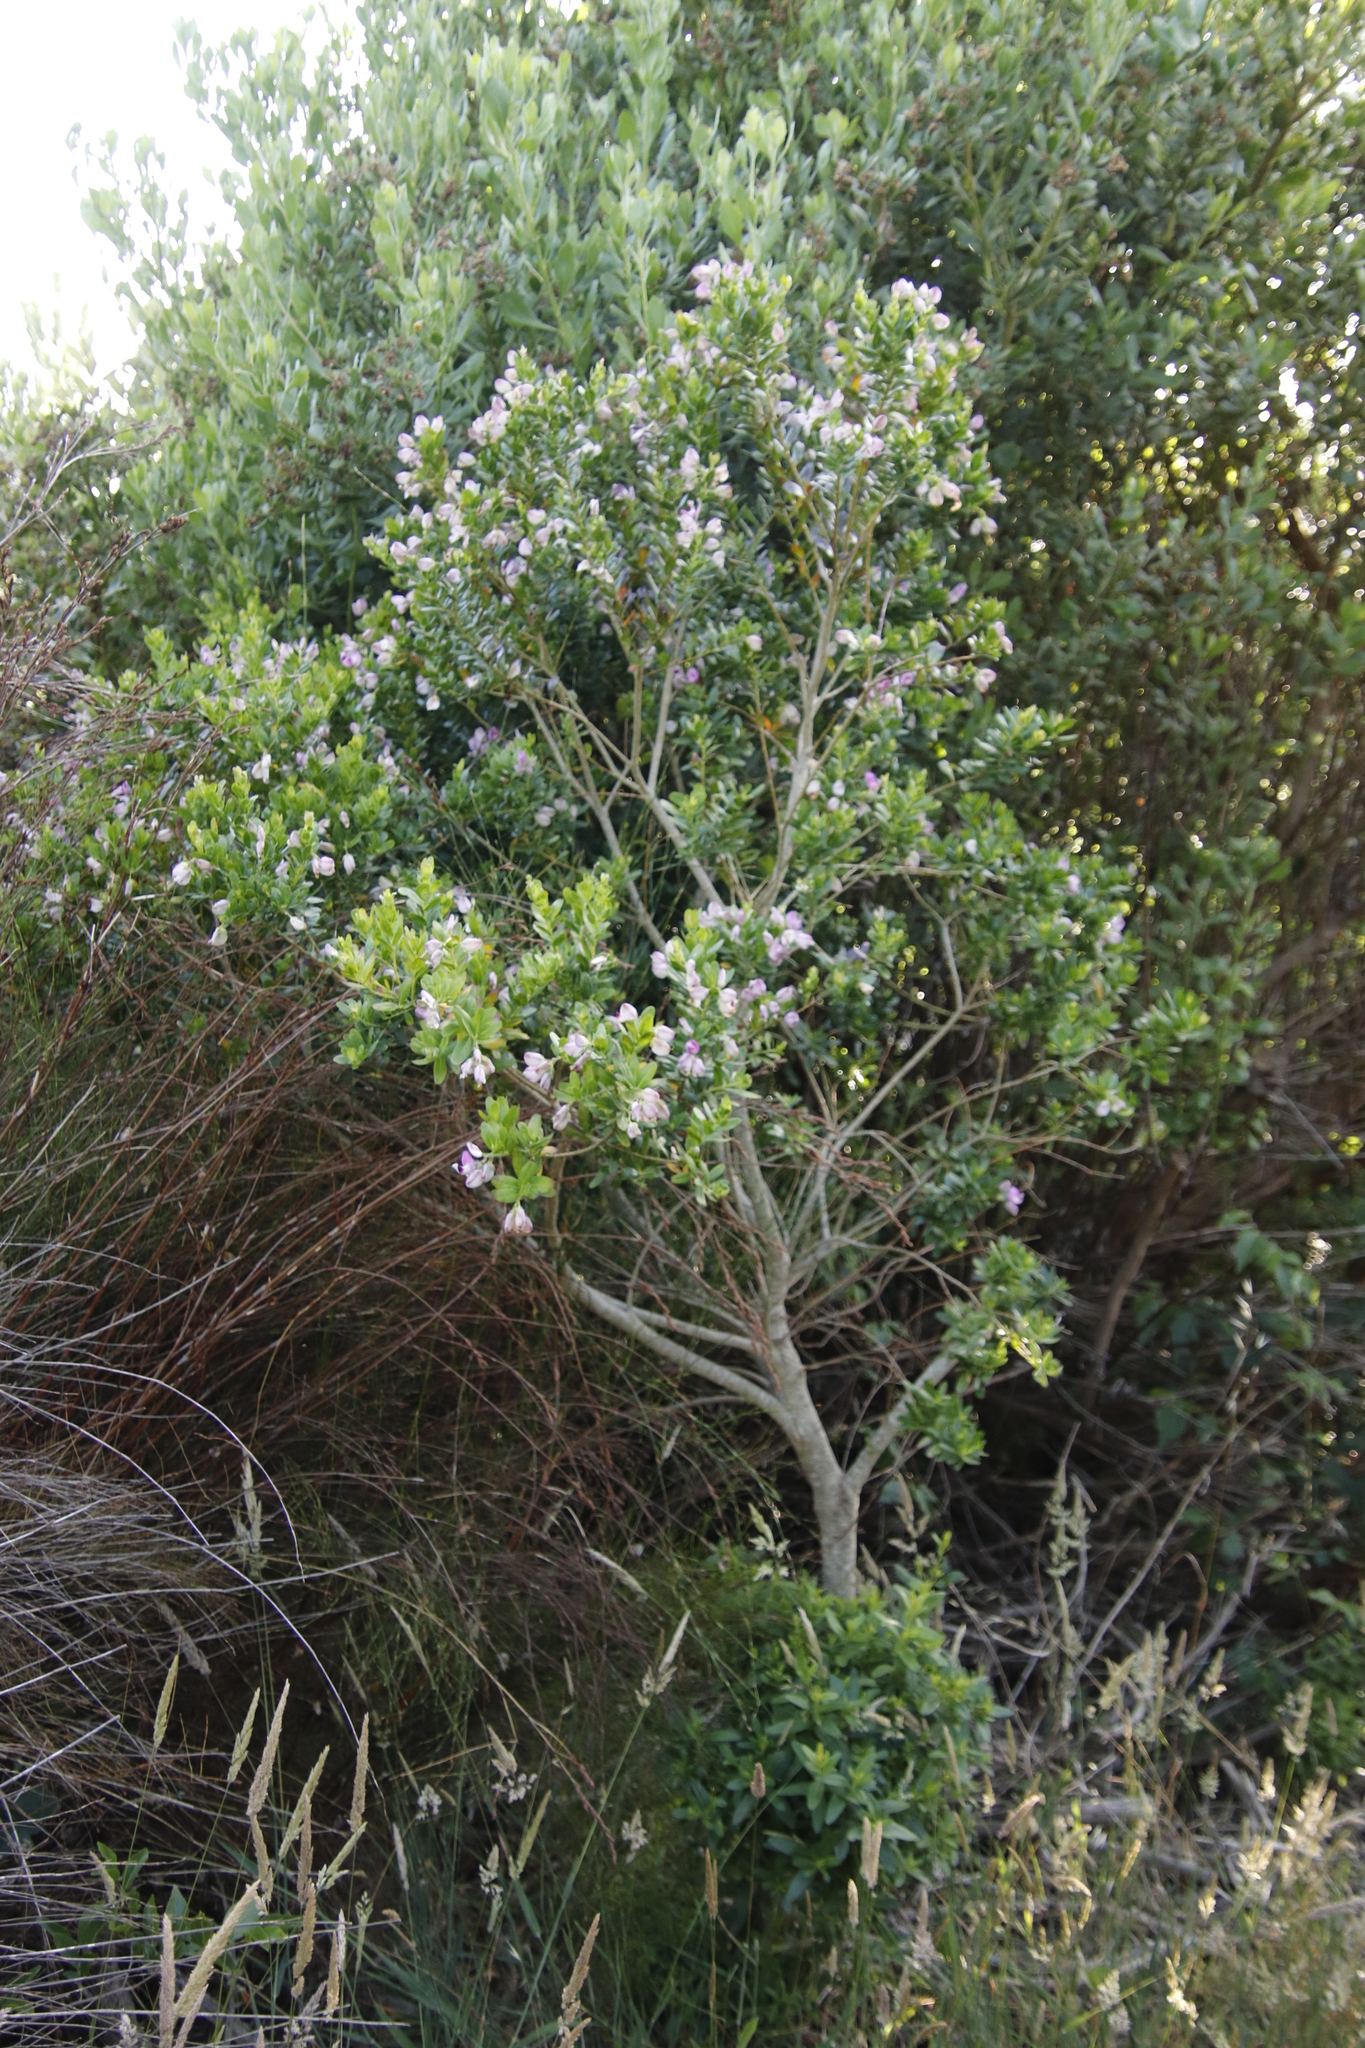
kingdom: Plantae
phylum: Tracheophyta
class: Magnoliopsida
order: Fabales
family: Polygalaceae
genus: Polygala
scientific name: Polygala myrtifolia
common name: Myrtle-leaf milkwort
